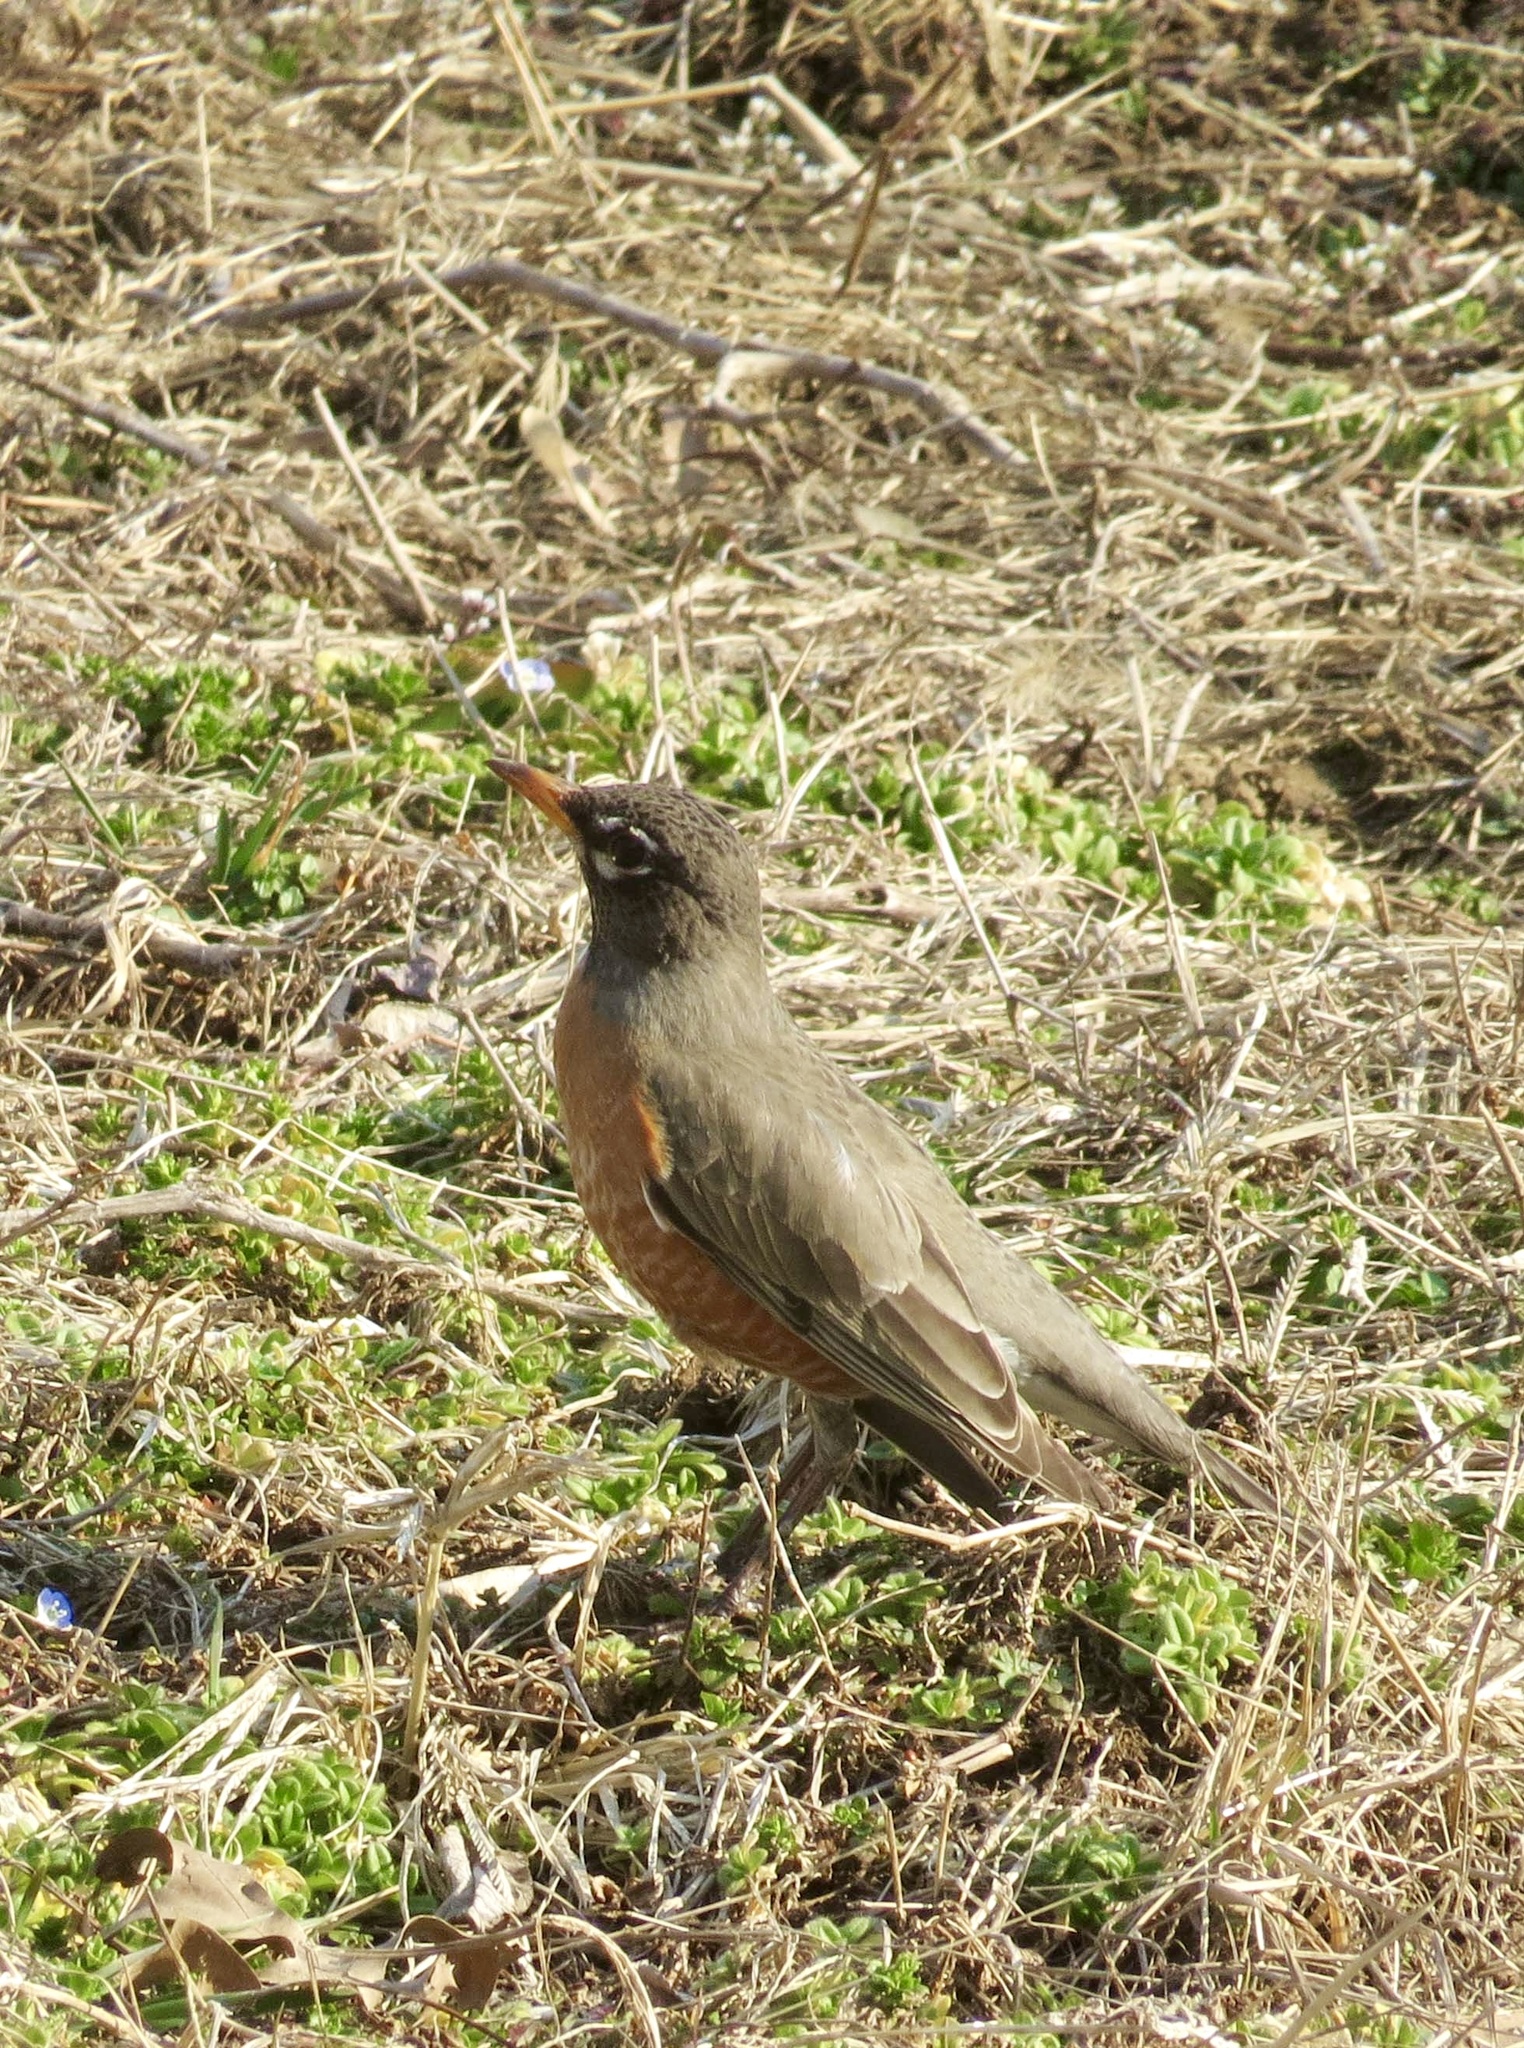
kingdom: Animalia
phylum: Chordata
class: Aves
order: Passeriformes
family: Turdidae
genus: Turdus
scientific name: Turdus migratorius
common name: American robin
